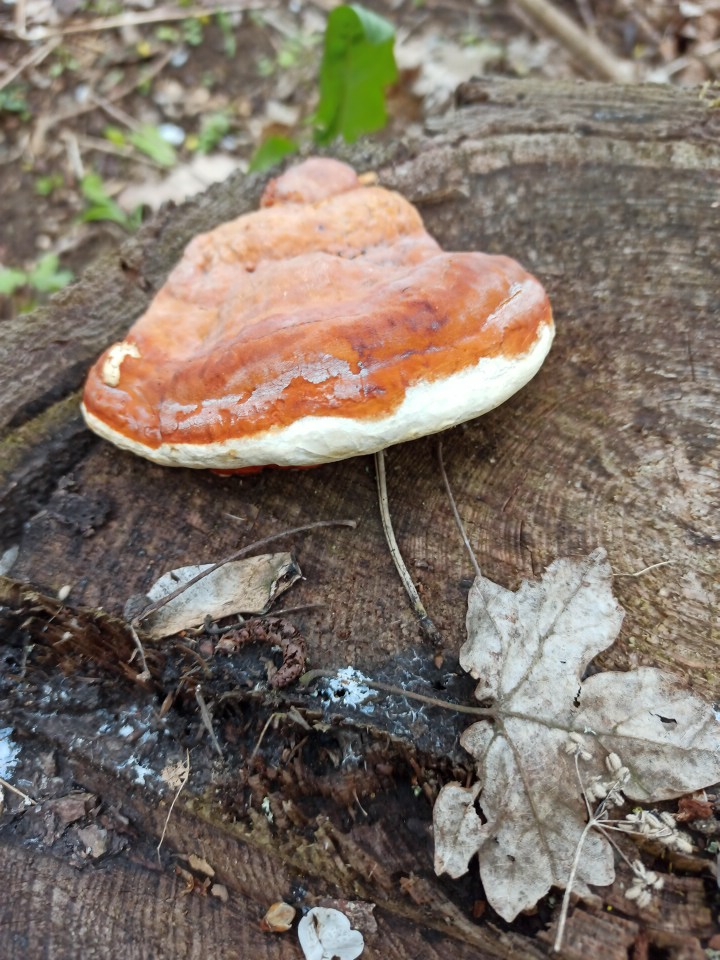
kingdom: Fungi
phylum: Basidiomycota
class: Agaricomycetes
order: Polyporales
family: Fomitopsidaceae
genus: Fomitopsis
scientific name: Fomitopsis pinicola
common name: Red-belted bracket
